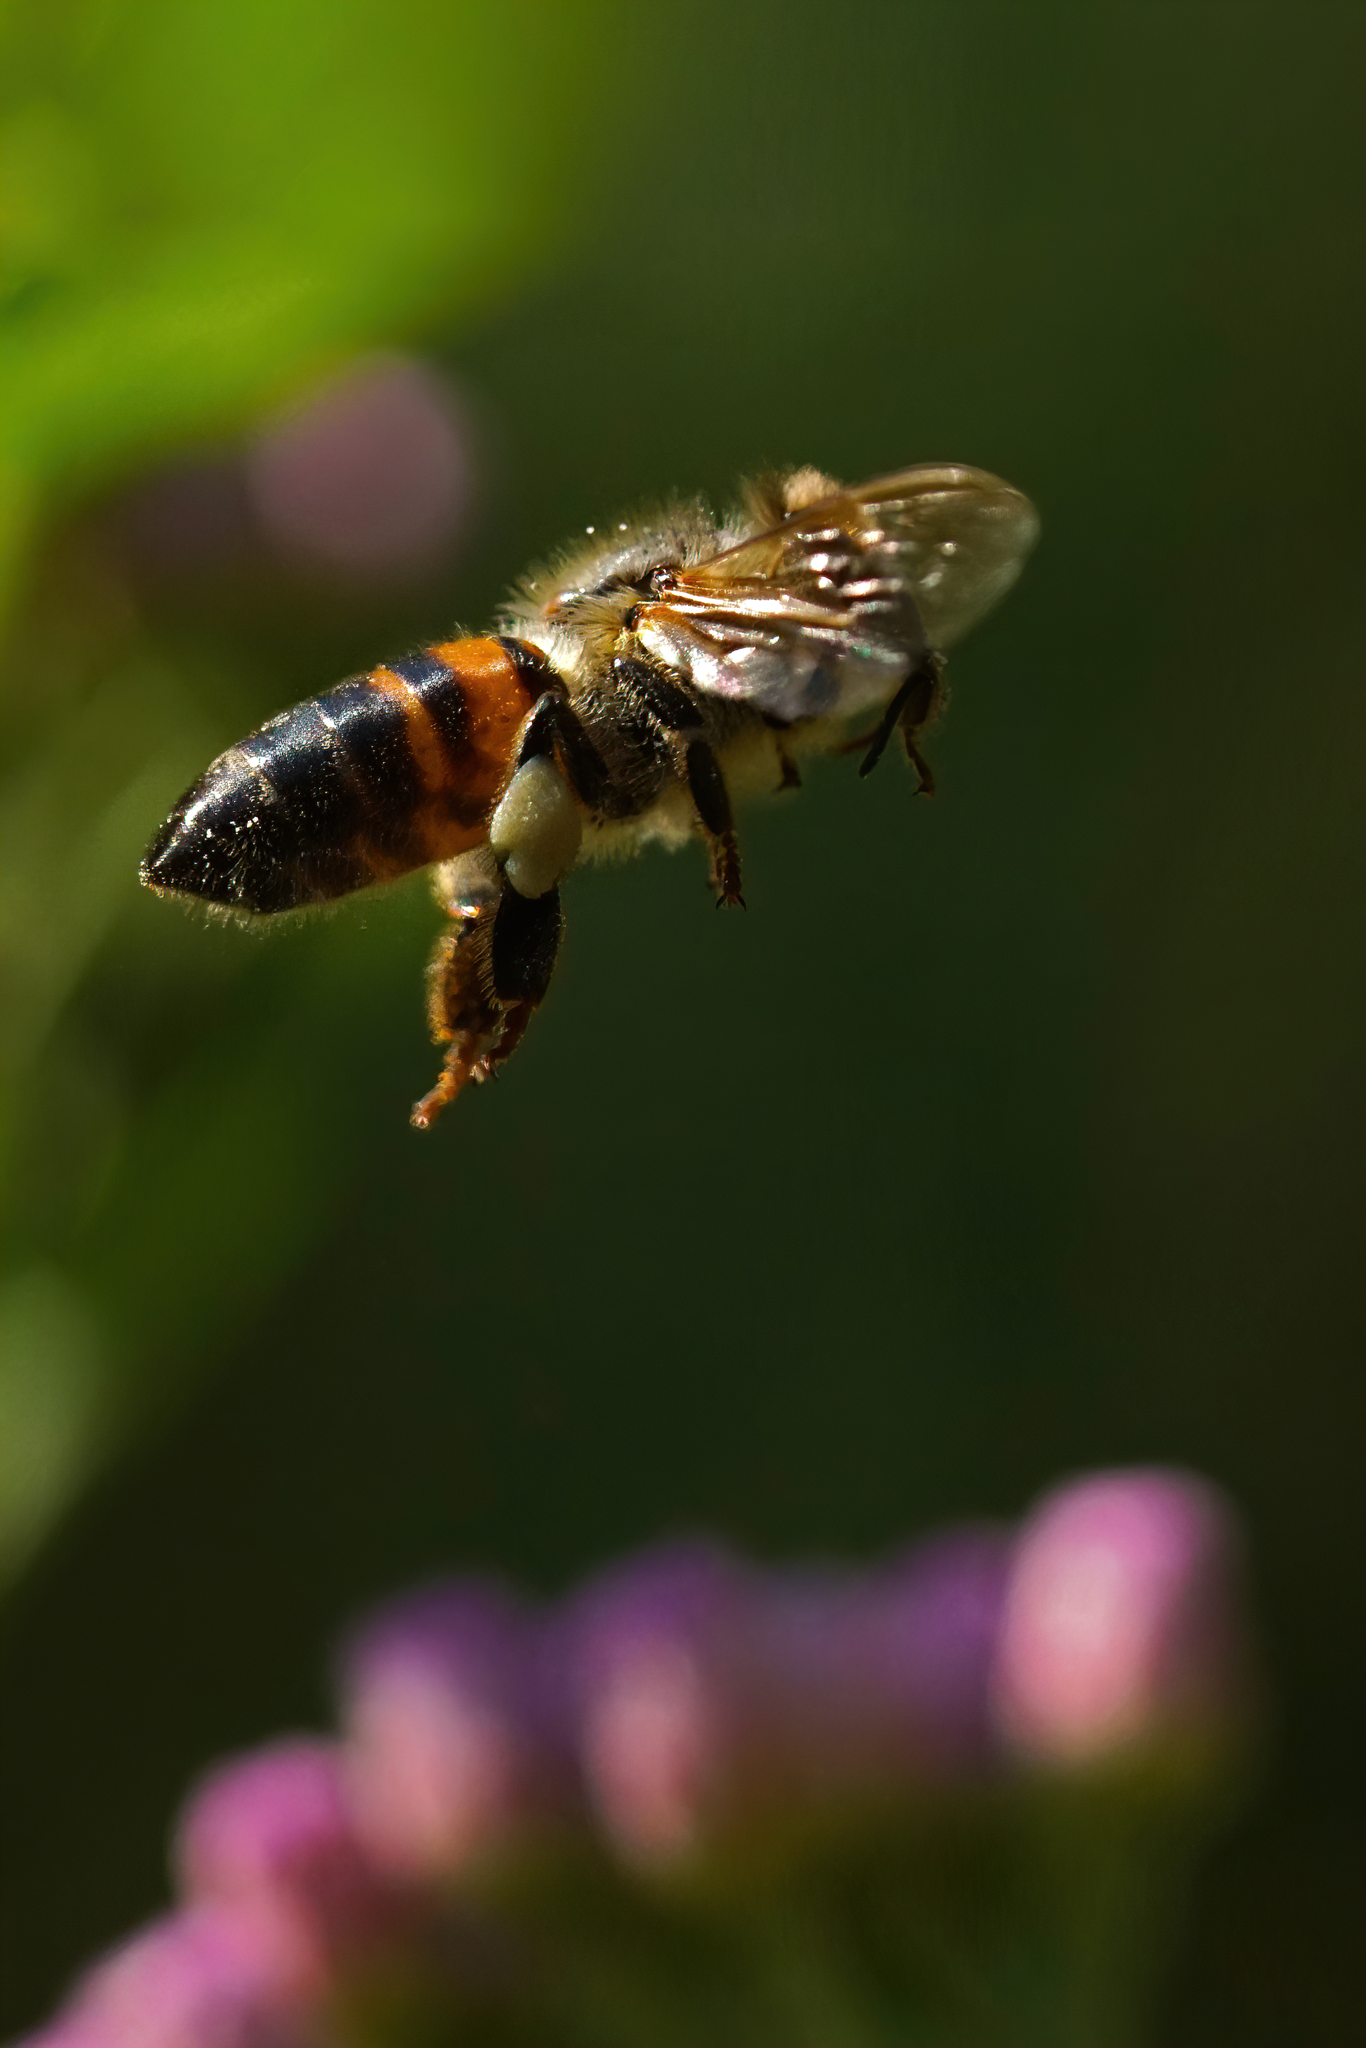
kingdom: Animalia
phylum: Arthropoda
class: Insecta
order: Hymenoptera
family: Apidae
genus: Apis
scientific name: Apis mellifera
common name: Honey bee
